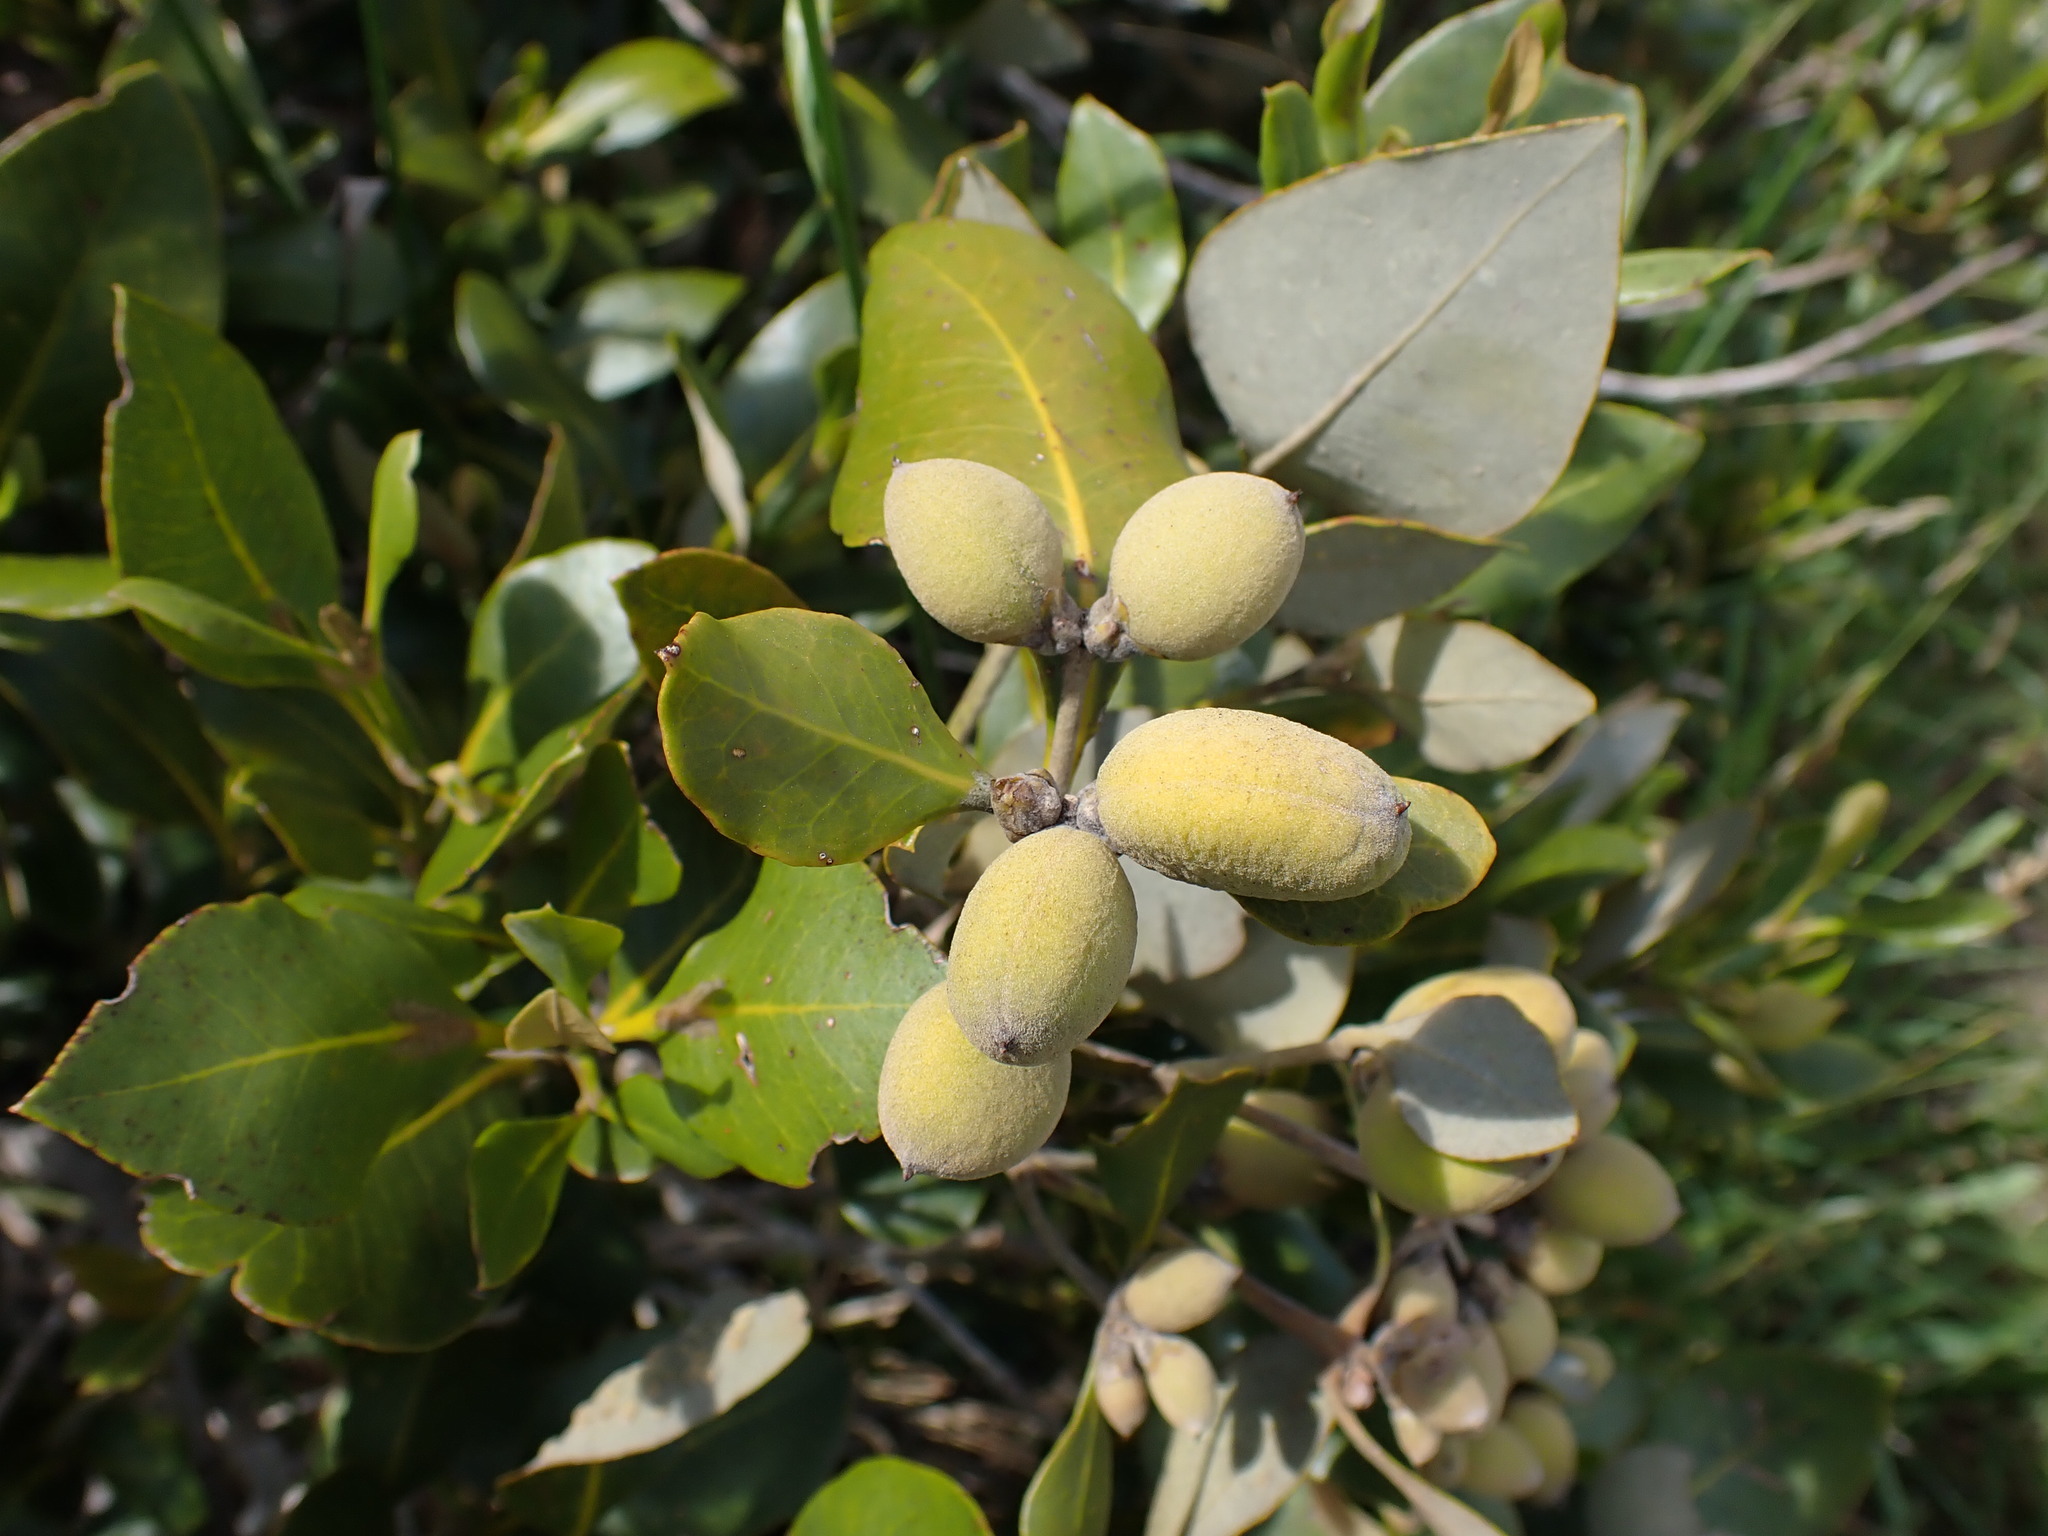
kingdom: Plantae
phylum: Tracheophyta
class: Magnoliopsida
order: Lamiales
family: Acanthaceae
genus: Avicennia
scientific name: Avicennia marina
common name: Gray mangrove
